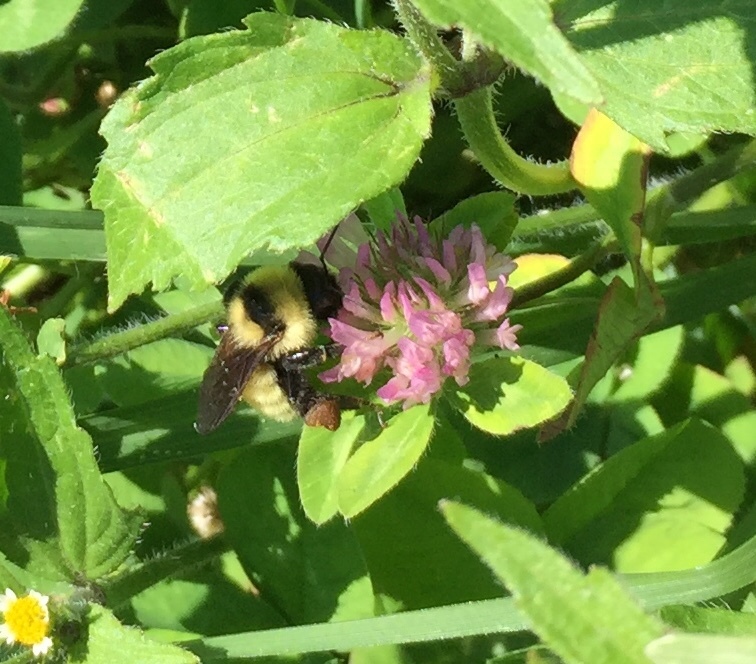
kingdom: Animalia
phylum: Arthropoda
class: Insecta
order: Hymenoptera
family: Apidae
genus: Bombus
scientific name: Bombus fervidus
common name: Yellow bumble bee
